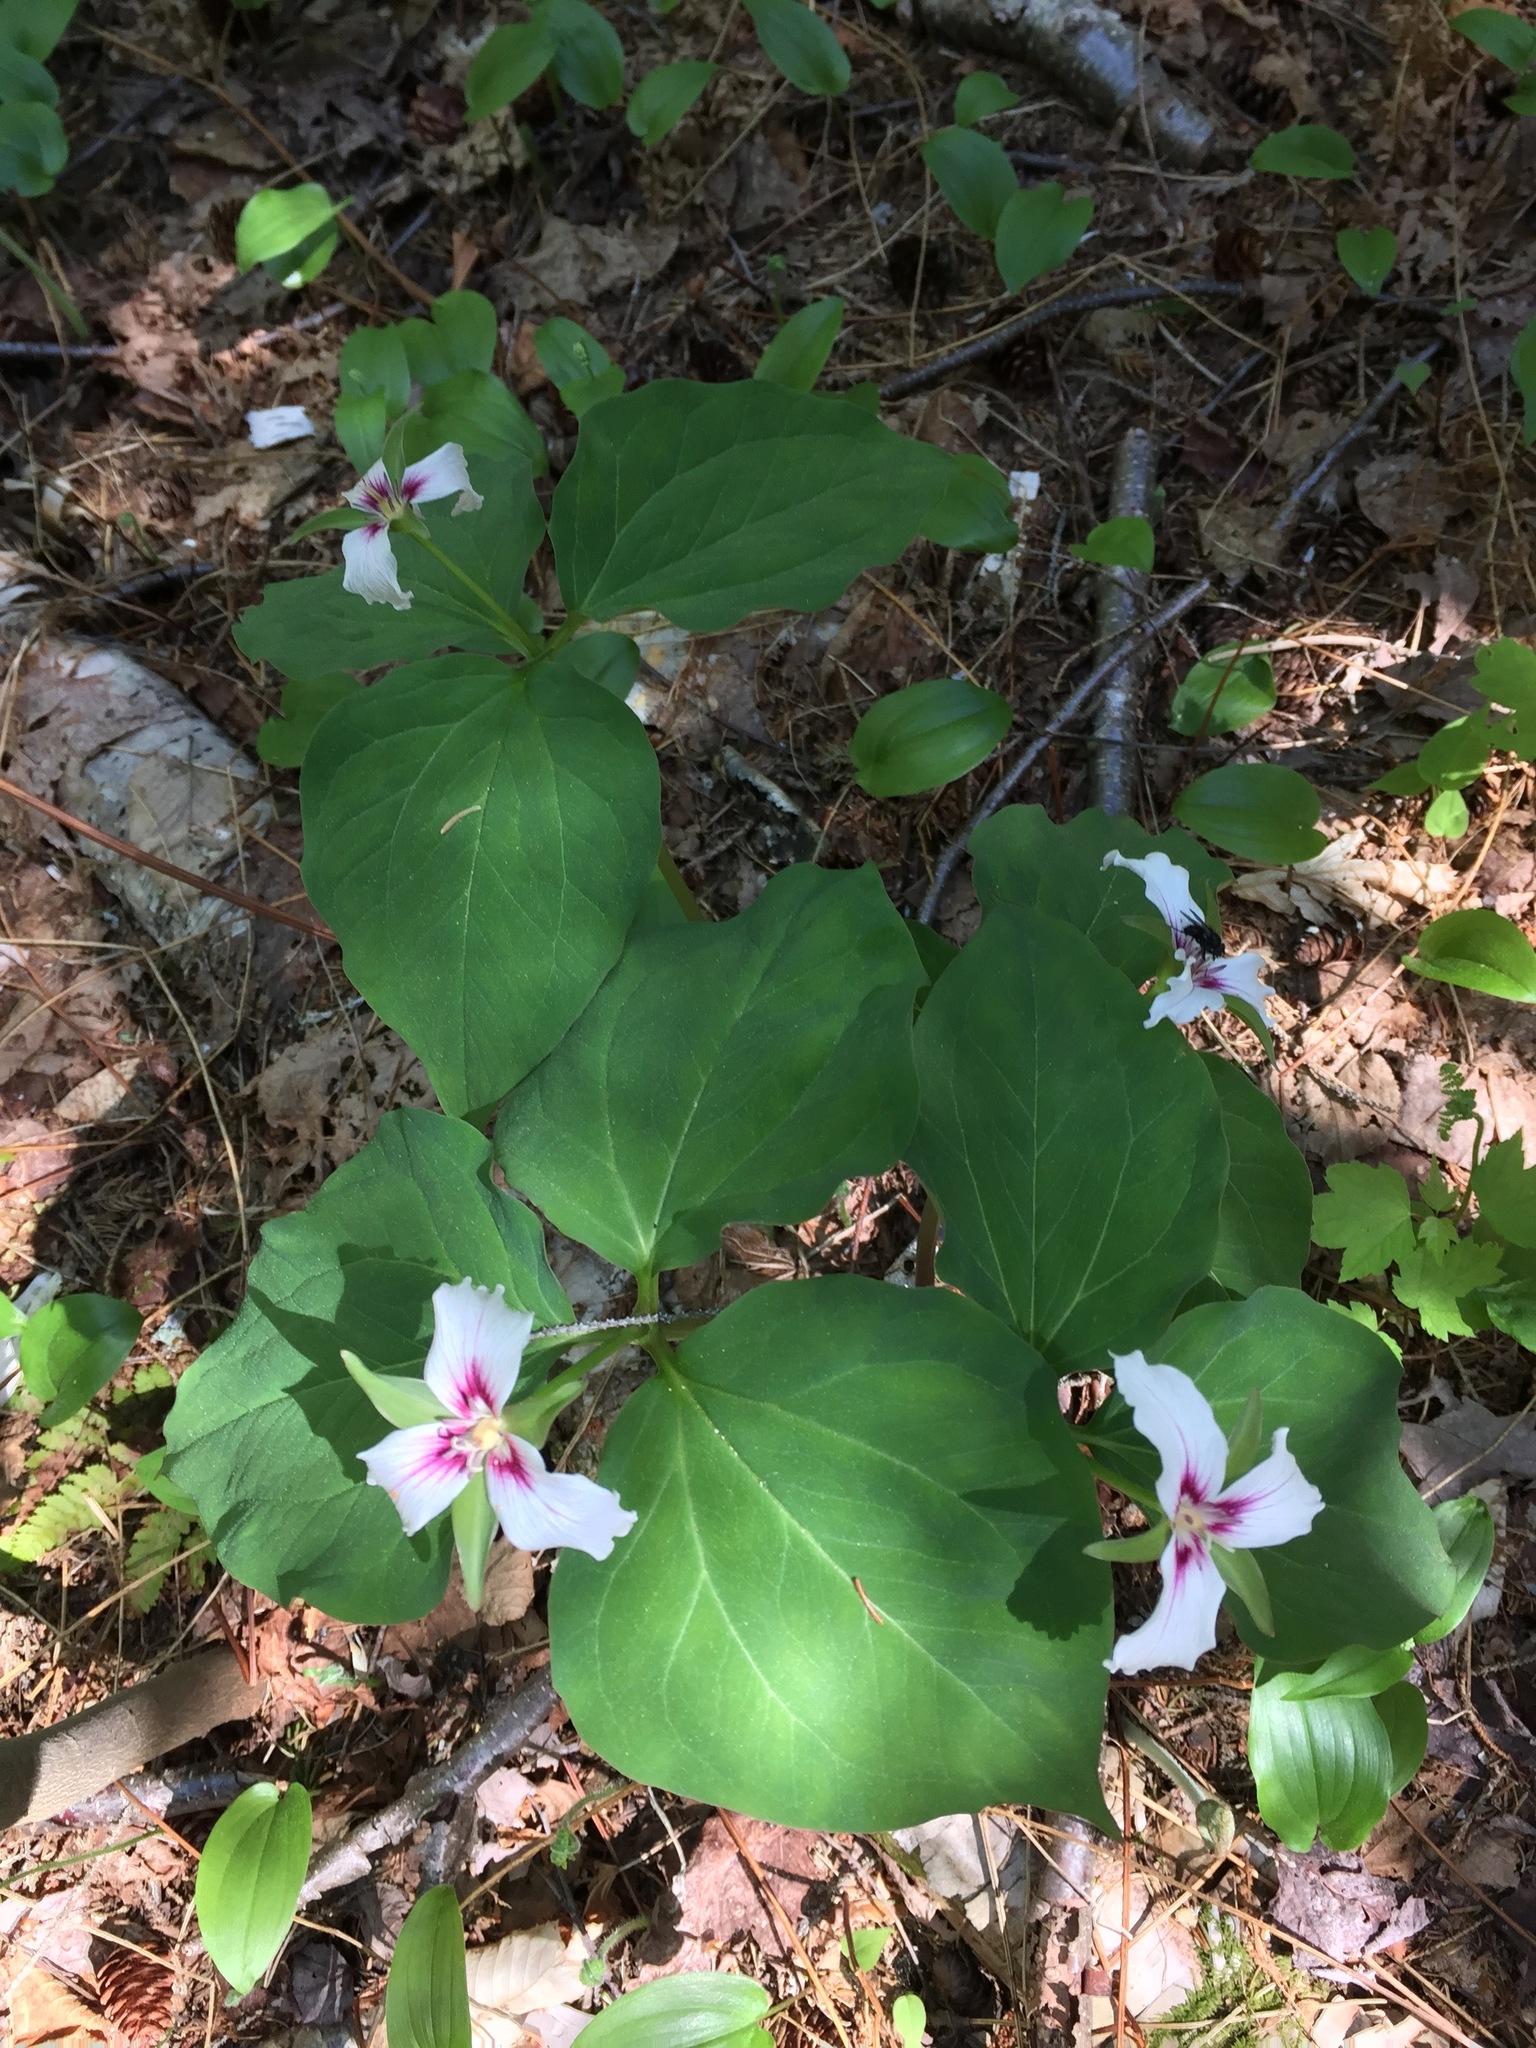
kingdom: Plantae
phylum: Tracheophyta
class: Liliopsida
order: Liliales
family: Melanthiaceae
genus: Trillium
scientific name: Trillium undulatum
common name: Paint trillium
